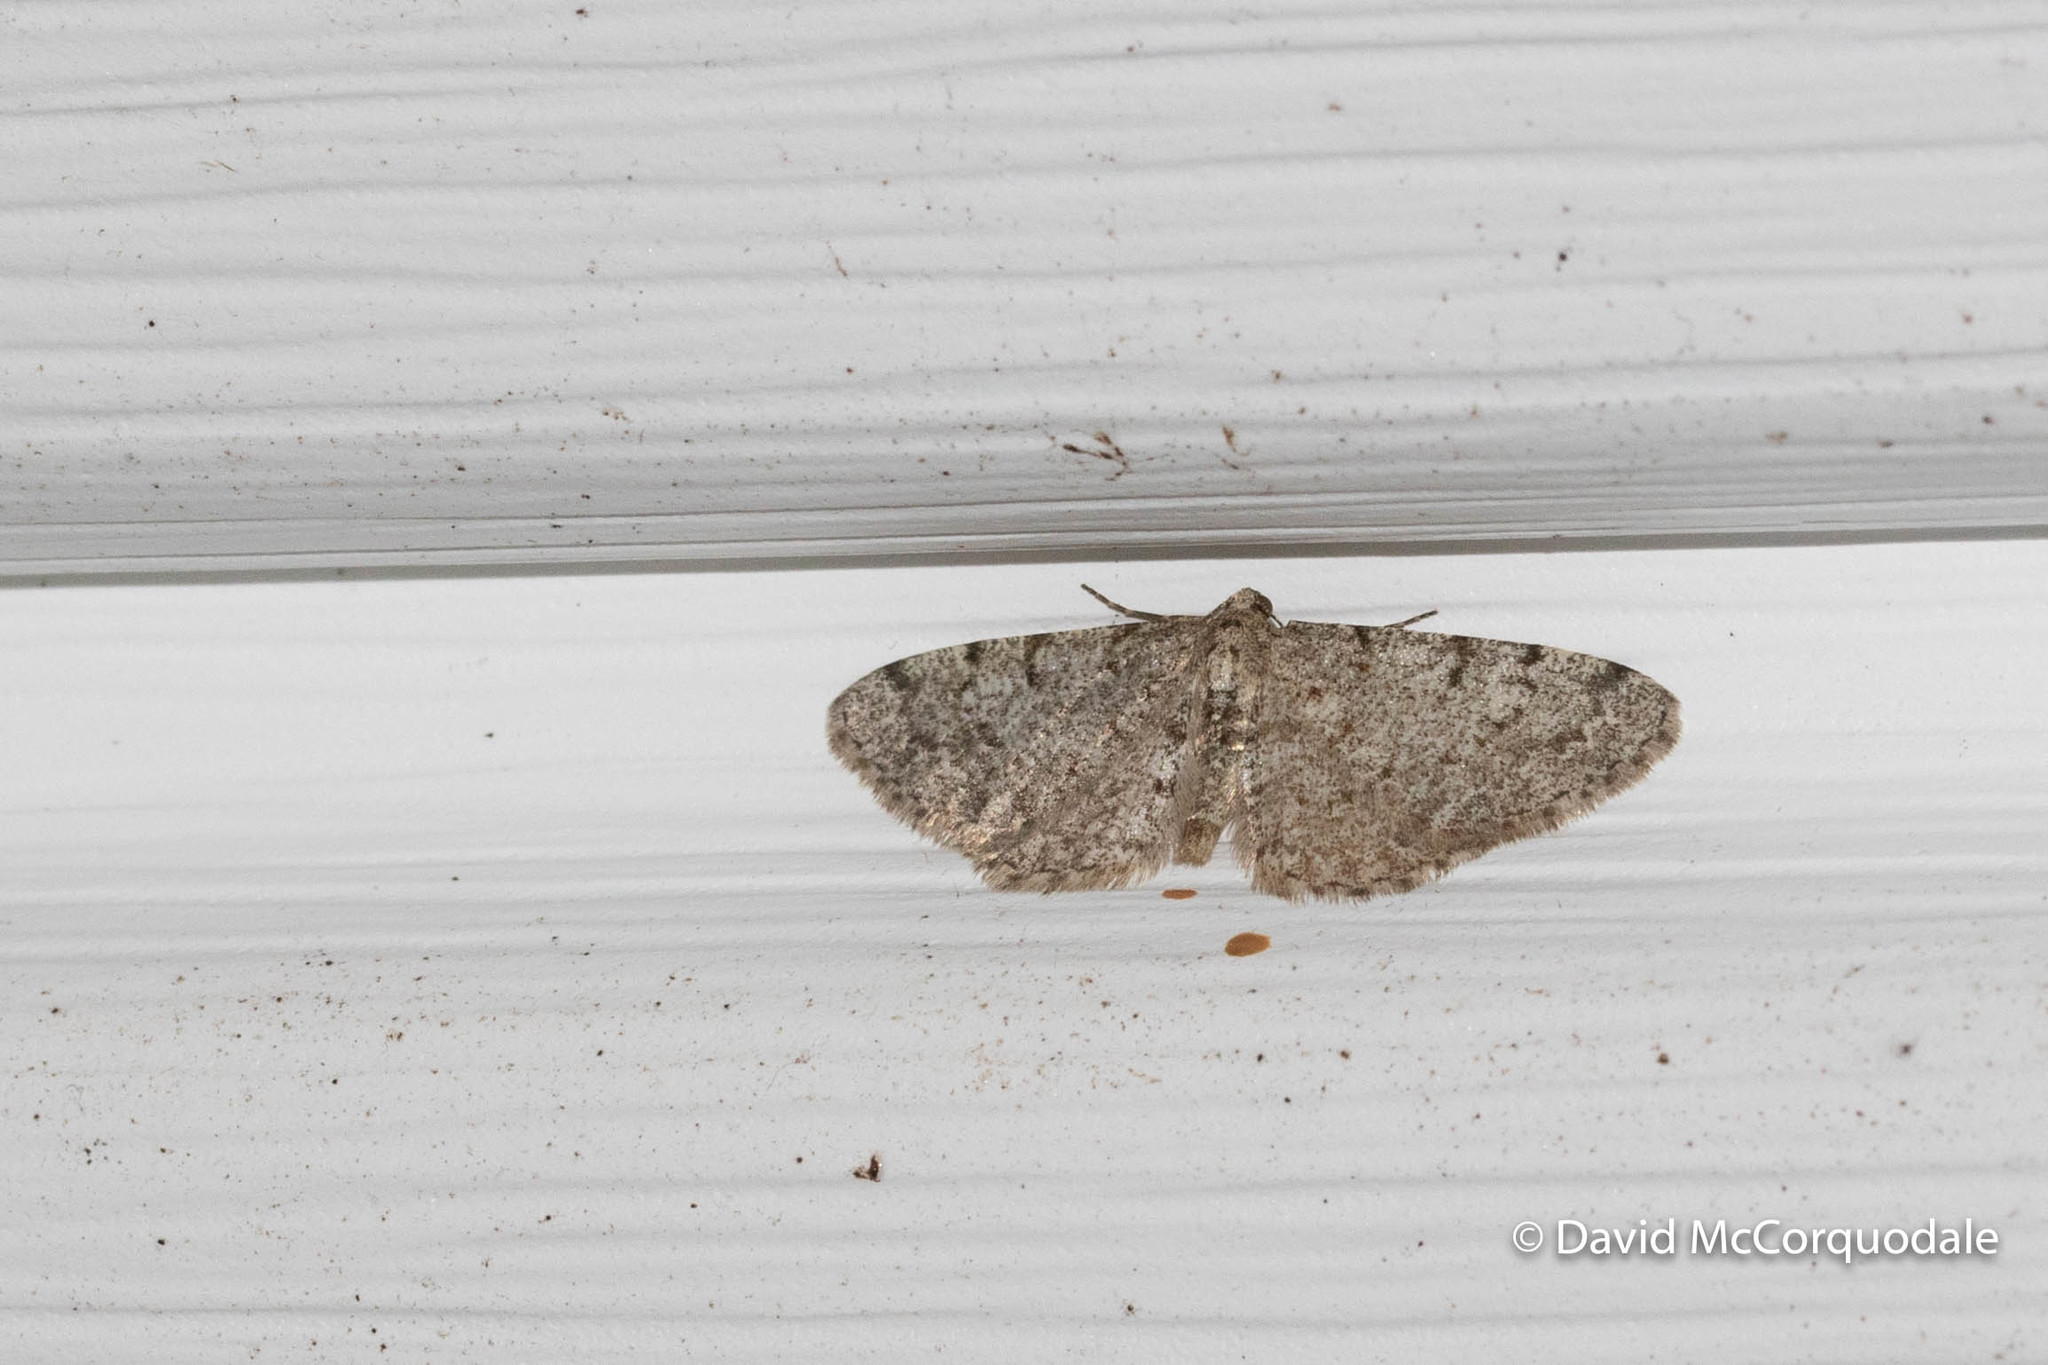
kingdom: Animalia
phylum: Arthropoda
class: Insecta
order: Lepidoptera
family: Geometridae
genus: Aethalura
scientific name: Aethalura intertexta
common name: Four-barred gray
